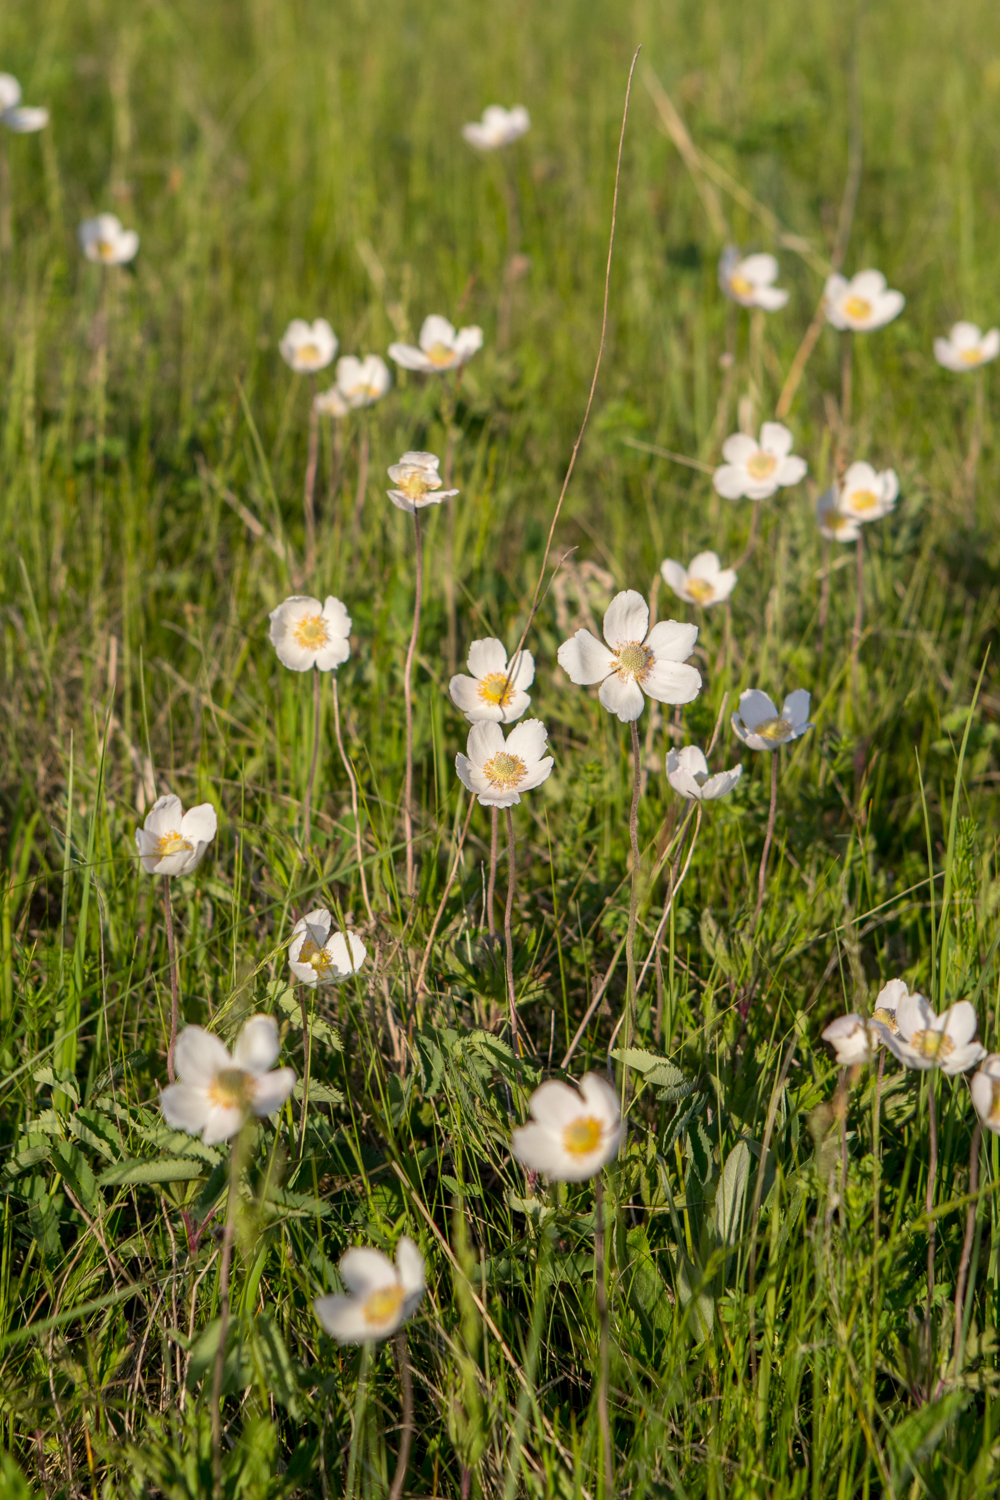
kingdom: Plantae
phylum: Tracheophyta
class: Magnoliopsida
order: Ranunculales
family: Ranunculaceae
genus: Anemone
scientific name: Anemone sylvestris
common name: Snowdrop anemone
